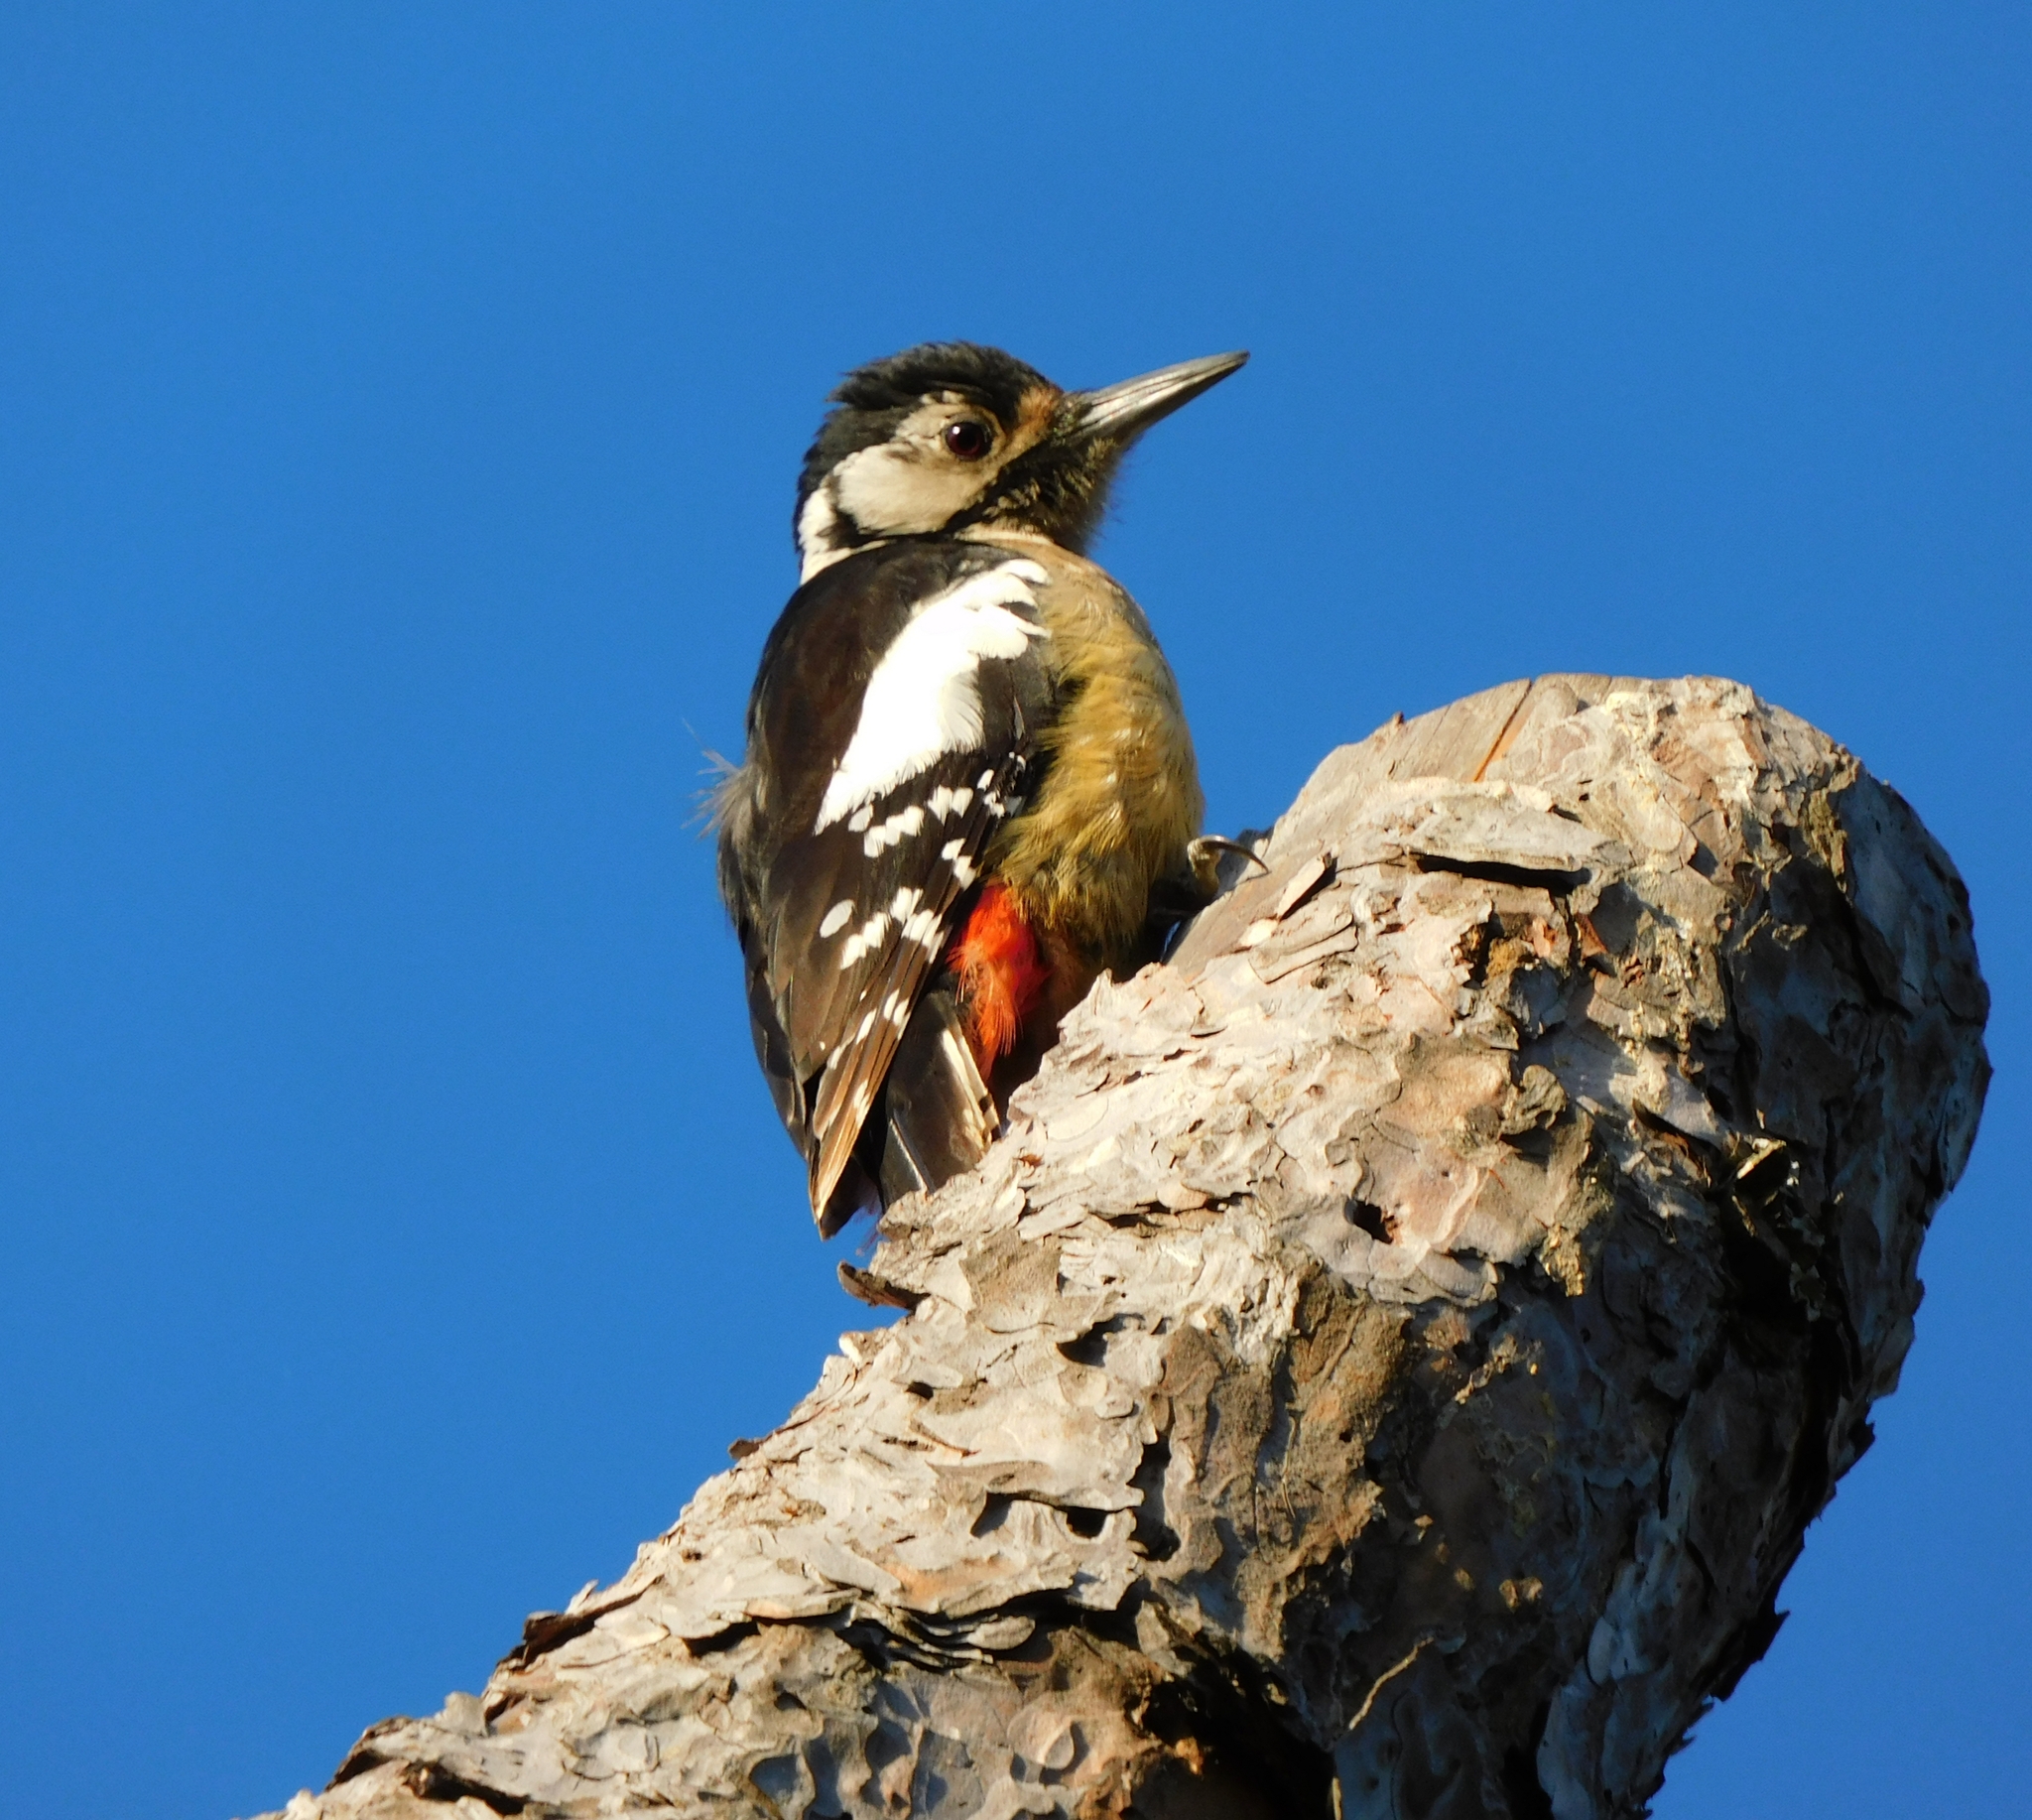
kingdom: Animalia
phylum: Chordata
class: Aves
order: Piciformes
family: Picidae
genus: Dendrocopos
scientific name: Dendrocopos himalayensis
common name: Himalayan woodpecker
